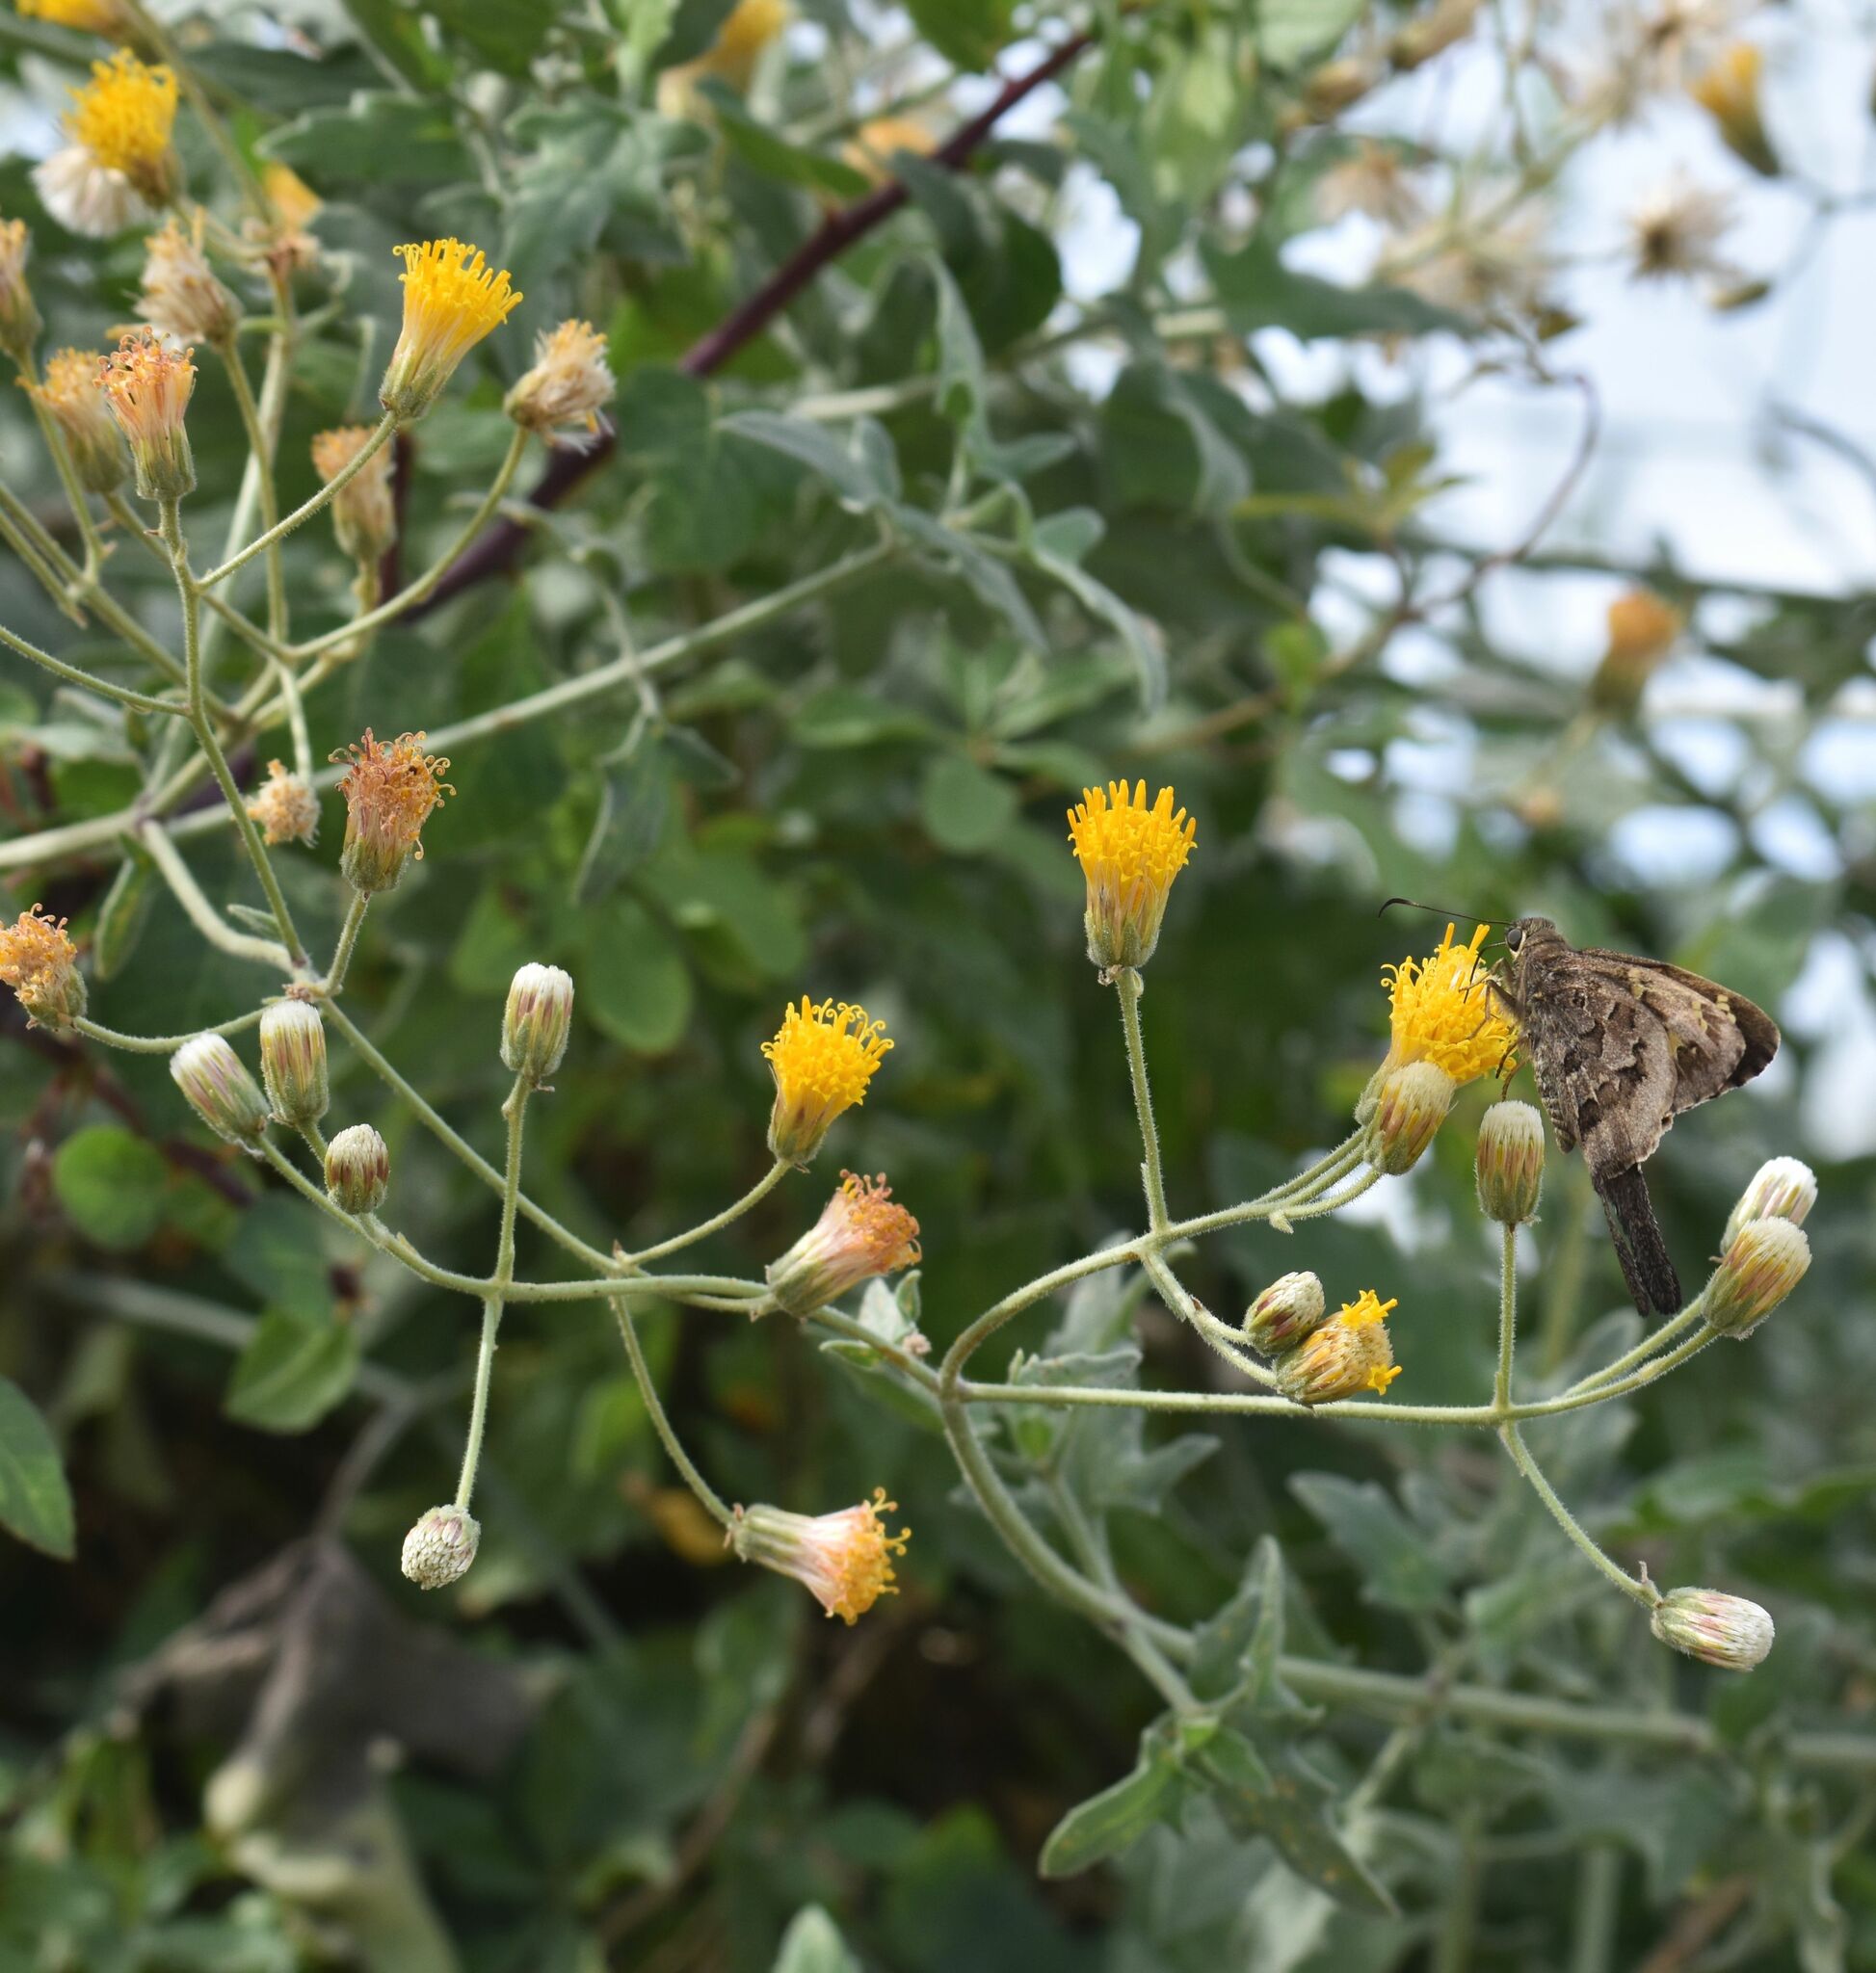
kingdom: Plantae
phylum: Tracheophyta
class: Magnoliopsida
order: Asterales
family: Asteraceae
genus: Bebbia
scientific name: Bebbia atriplicifolia
